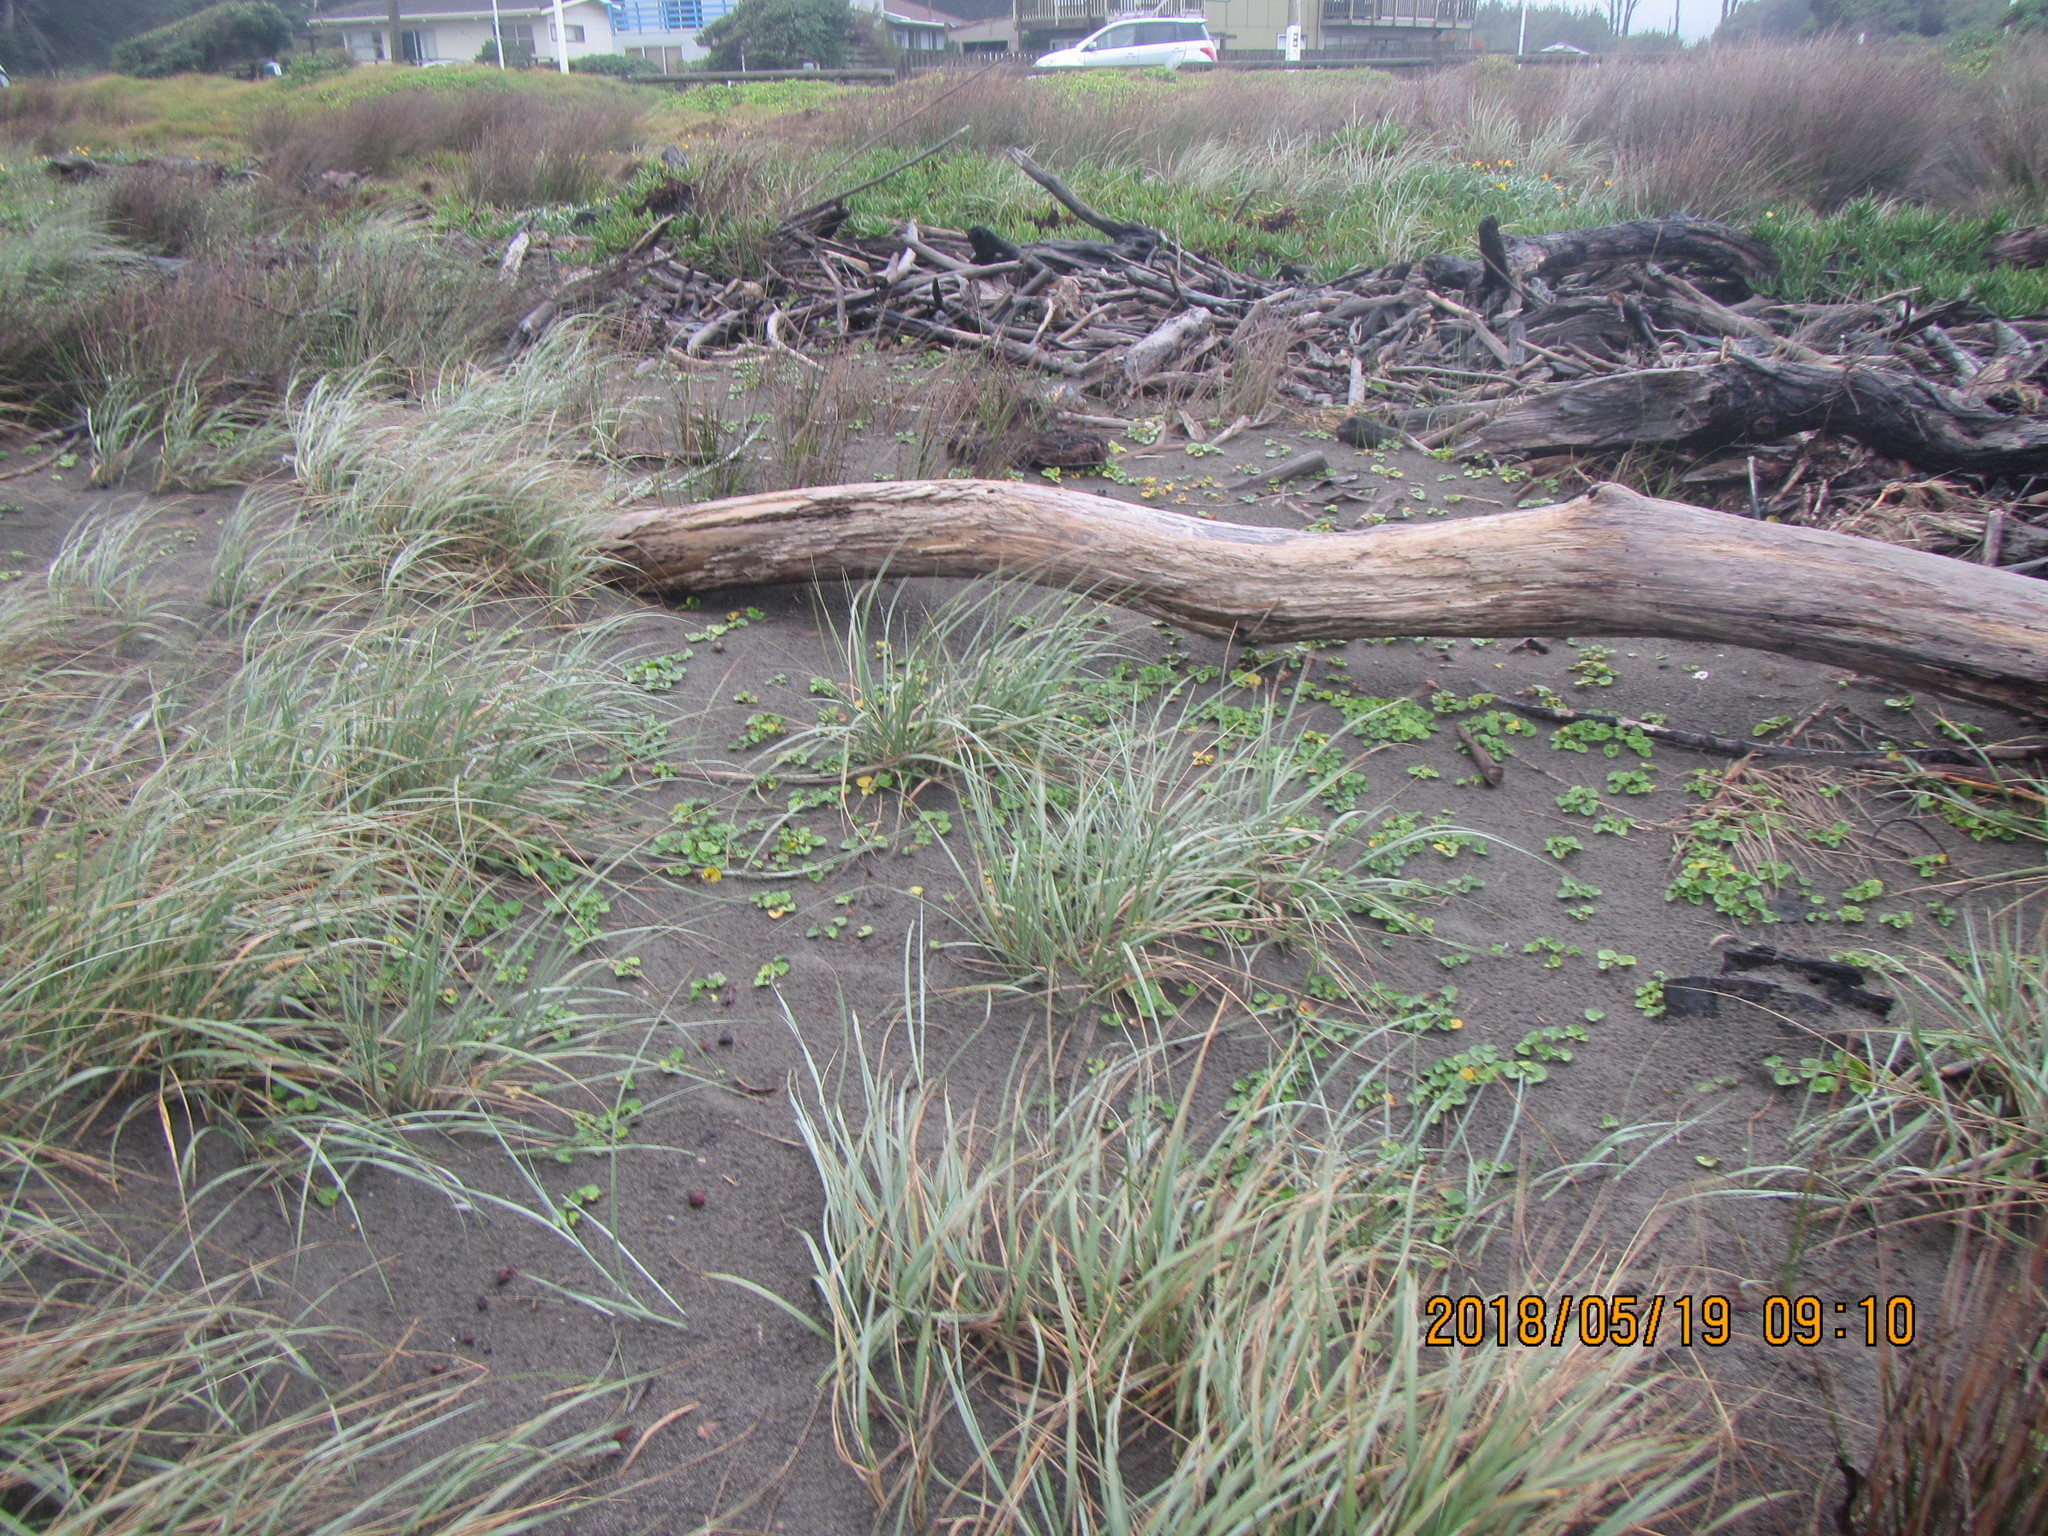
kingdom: Plantae
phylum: Tracheophyta
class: Magnoliopsida
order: Solanales
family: Convolvulaceae
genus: Calystegia
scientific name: Calystegia soldanella
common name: Sea bindweed
